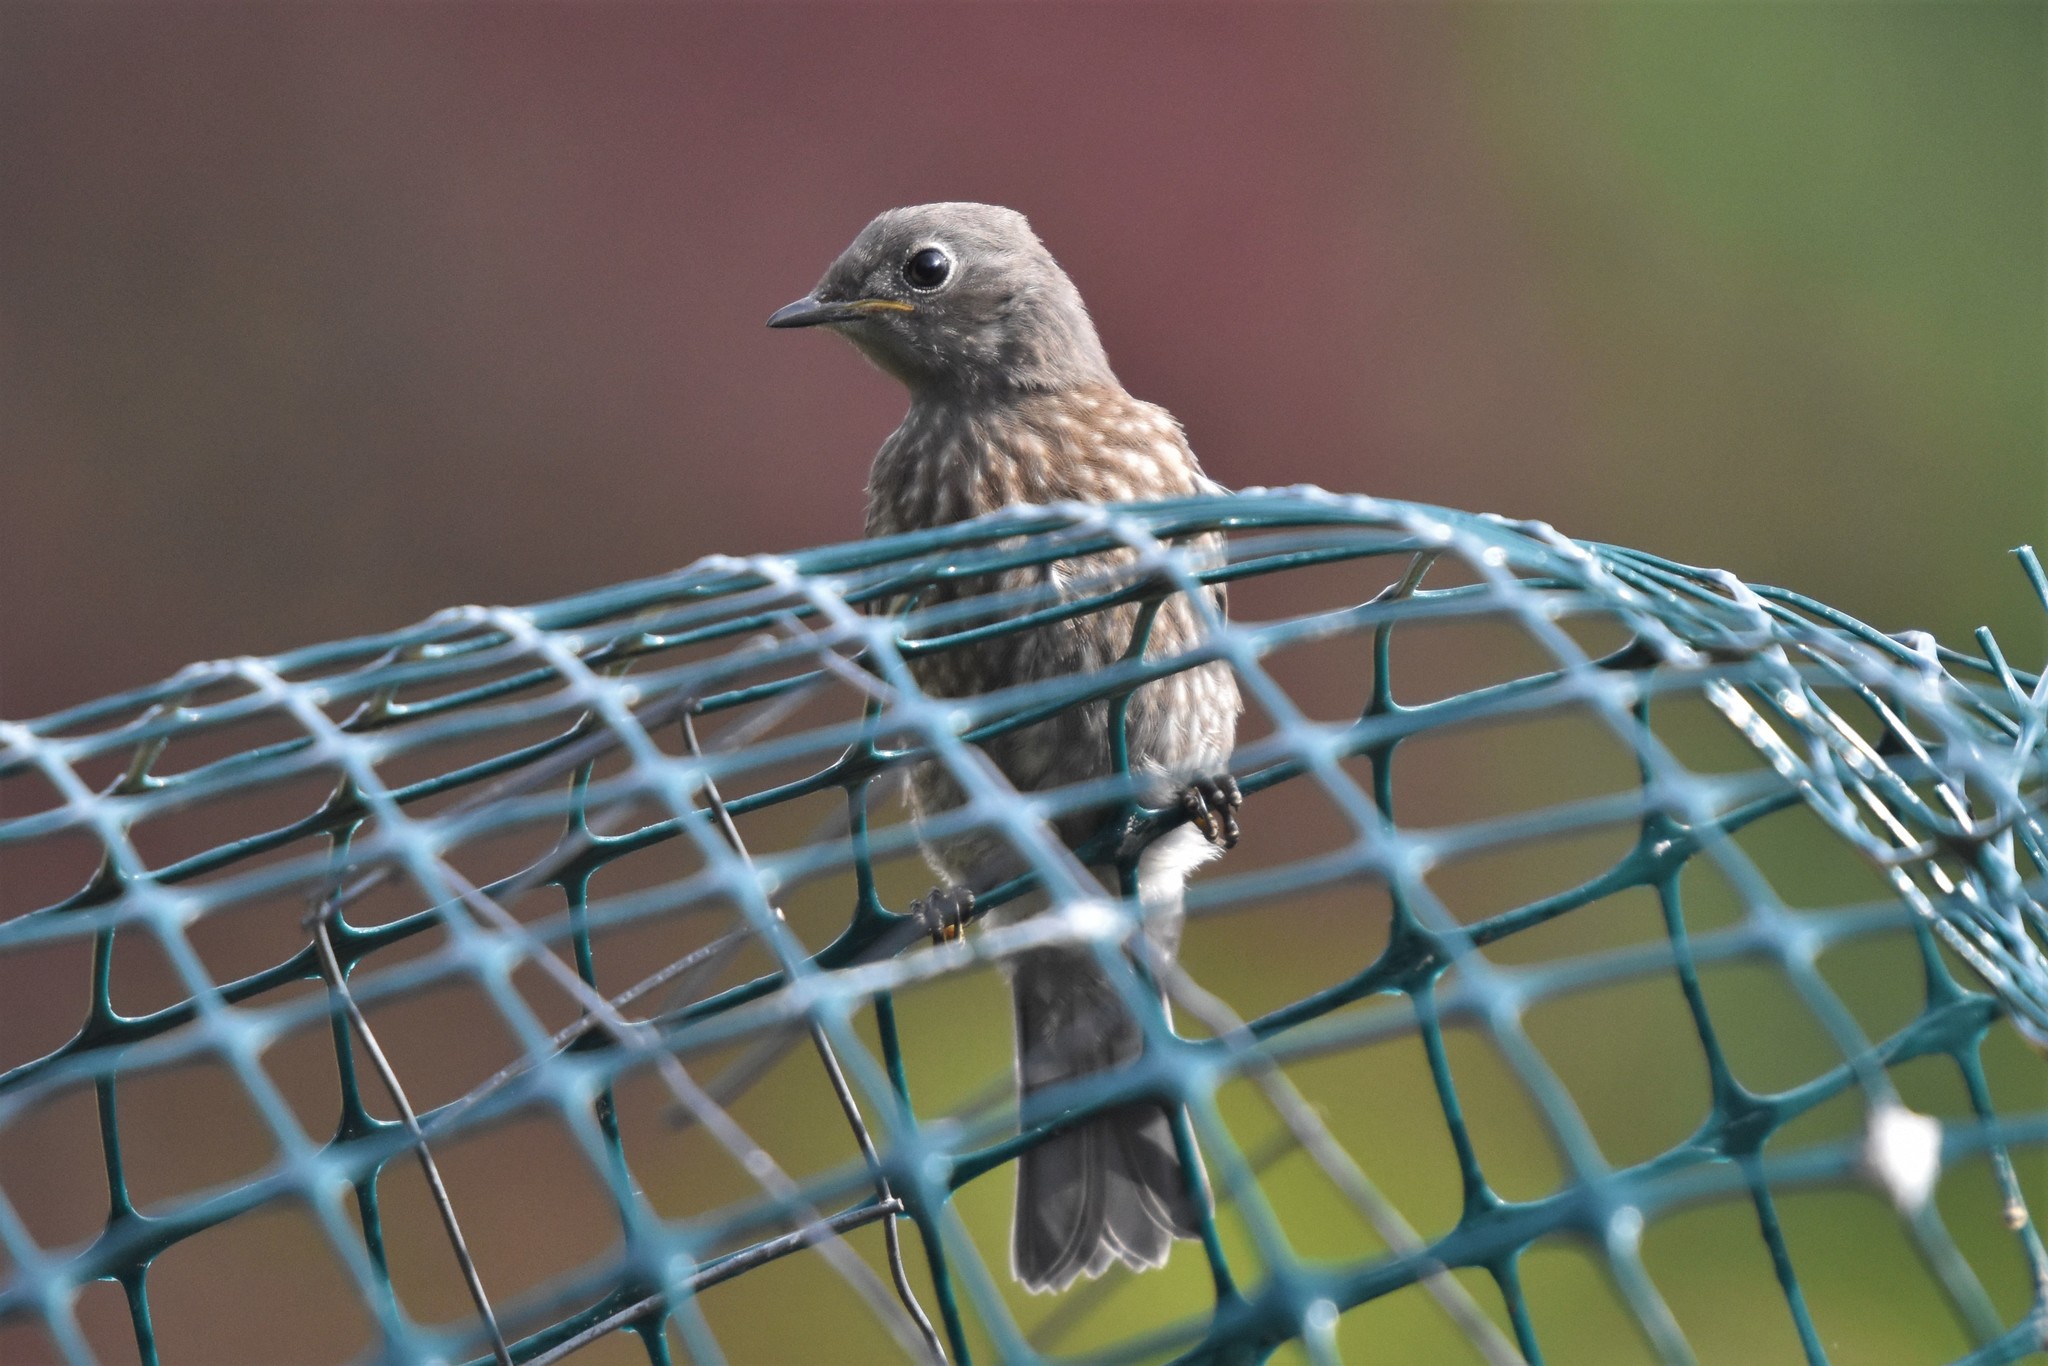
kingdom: Animalia
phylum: Chordata
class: Aves
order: Passeriformes
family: Turdidae
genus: Sialia
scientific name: Sialia mexicana
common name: Western bluebird
